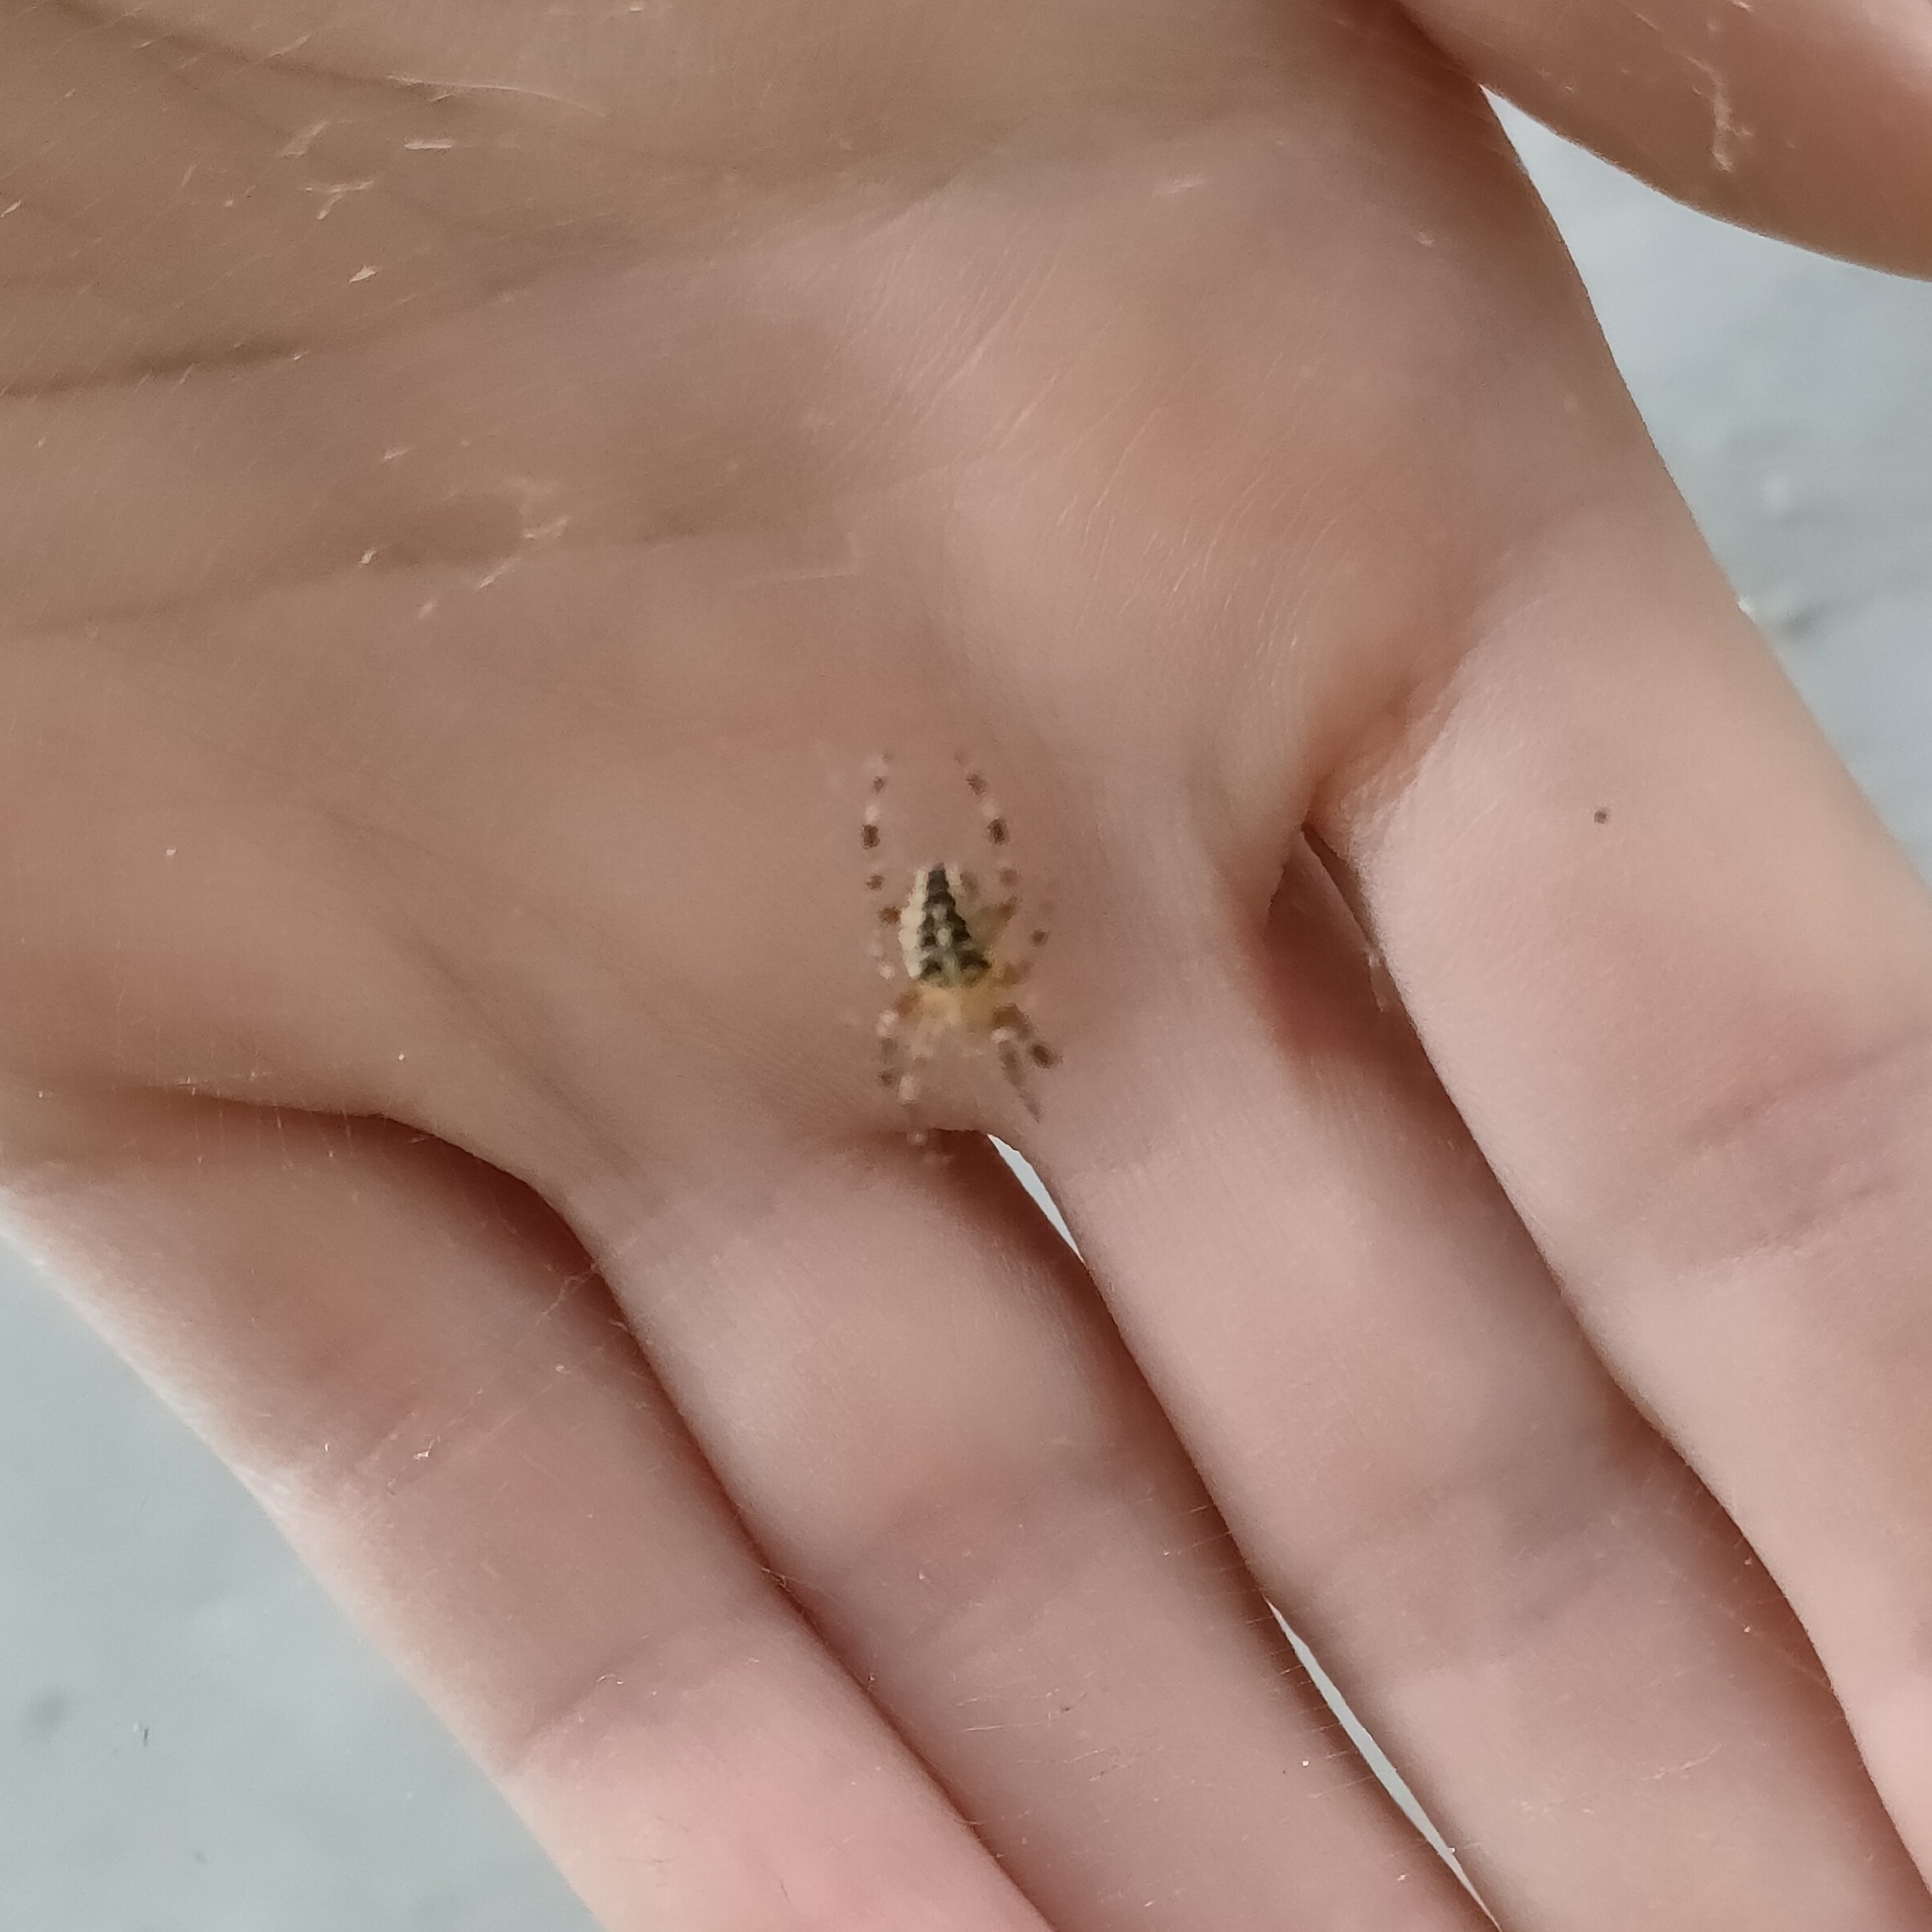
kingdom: Animalia
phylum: Arthropoda
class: Arachnida
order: Araneae
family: Araneidae
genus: Araneus
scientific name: Araneus diadematus
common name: Cross orbweaver
